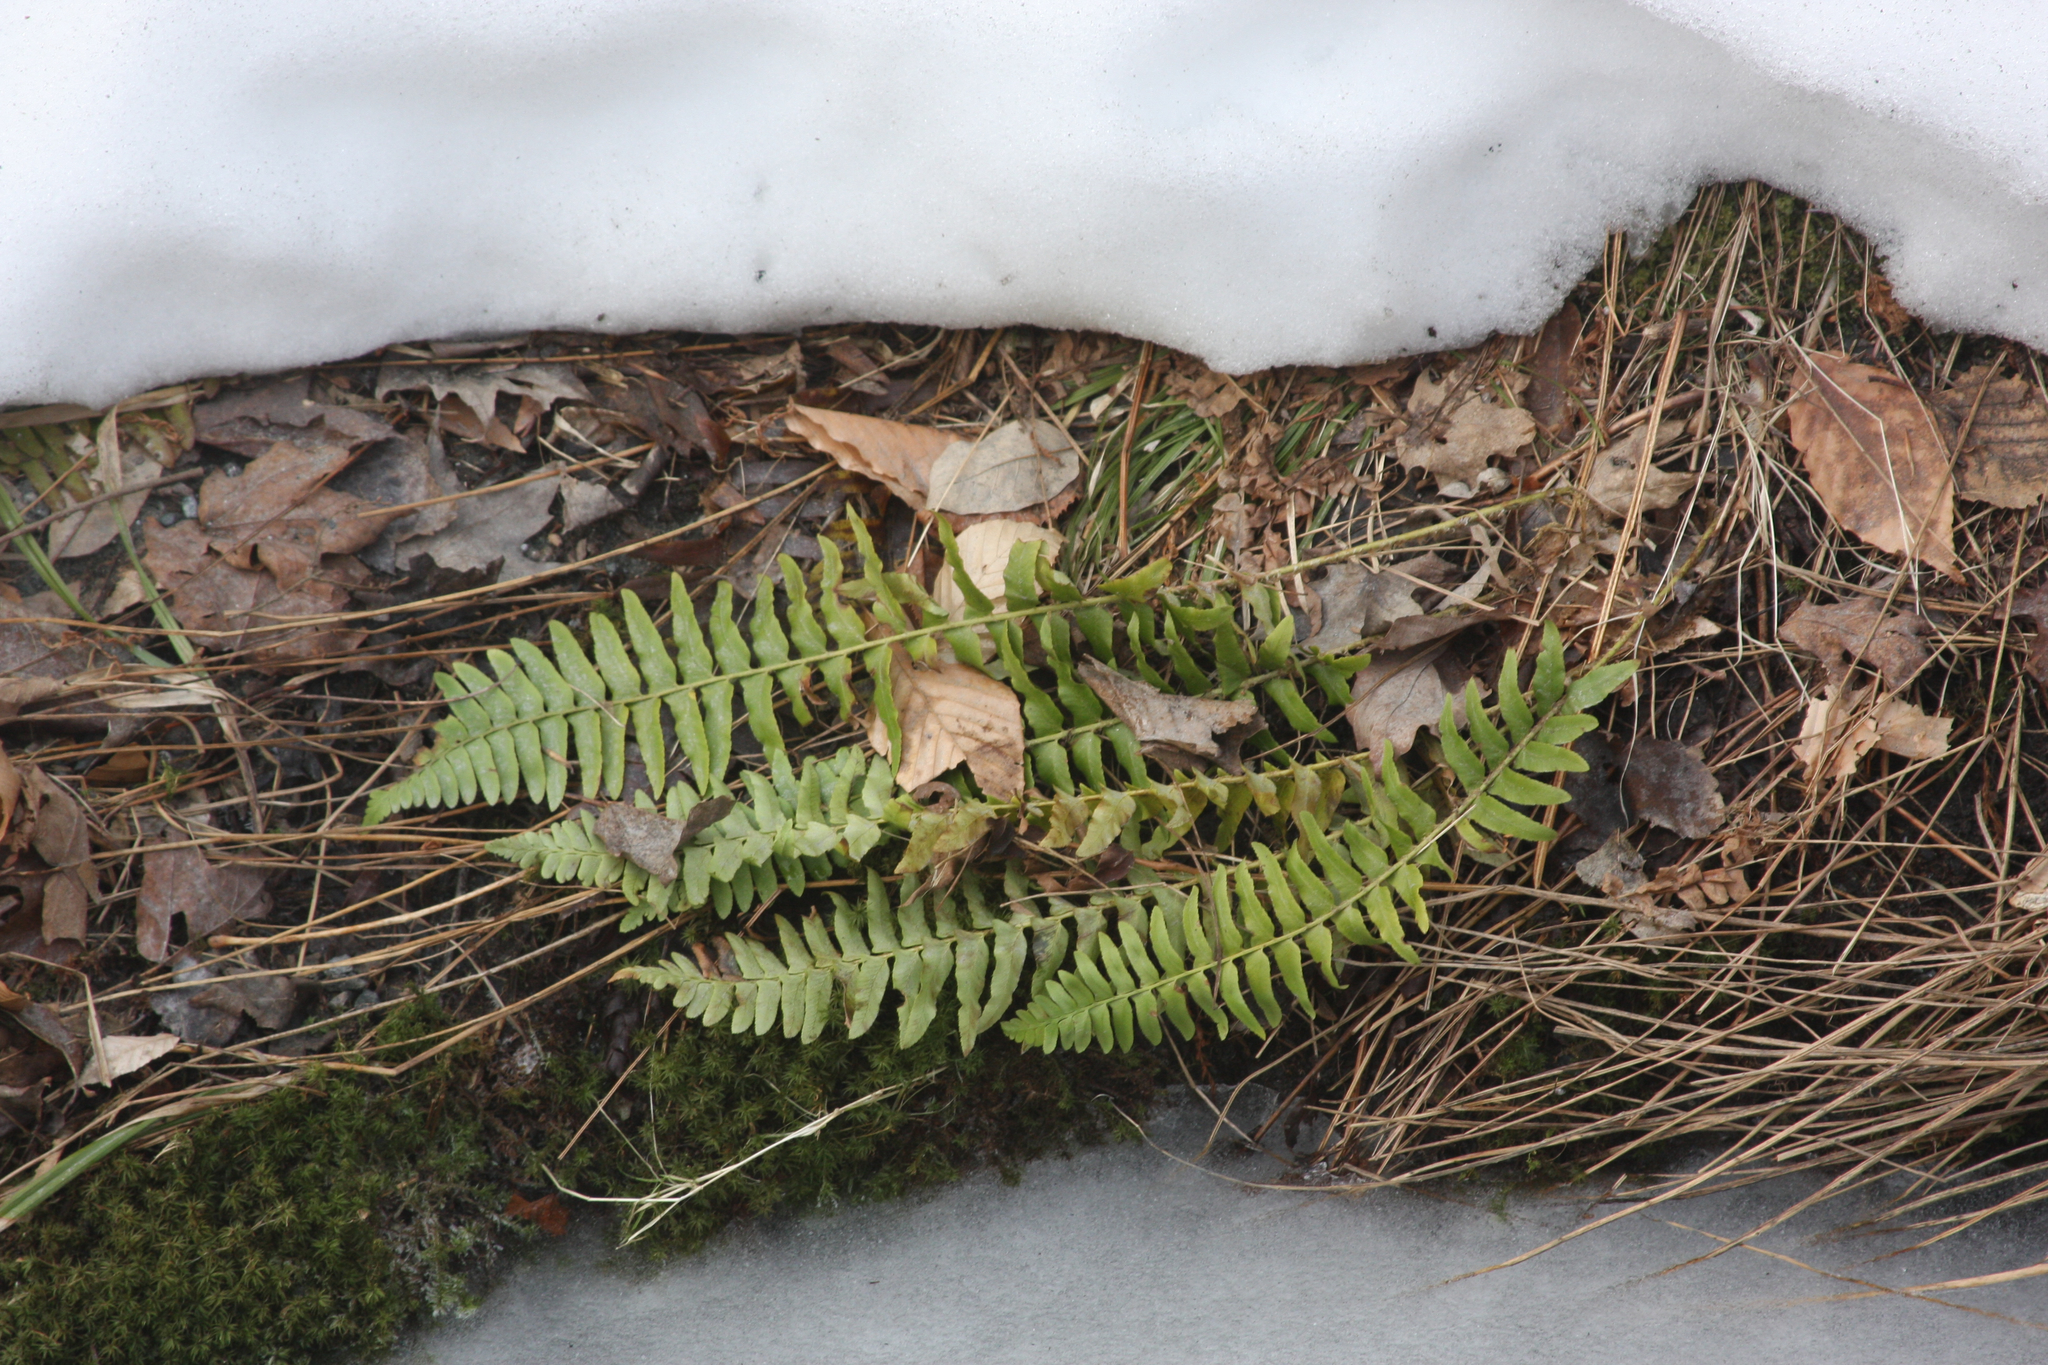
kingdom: Plantae
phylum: Tracheophyta
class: Polypodiopsida
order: Polypodiales
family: Dryopteridaceae
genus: Polystichum
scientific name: Polystichum acrostichoides
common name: Christmas fern
